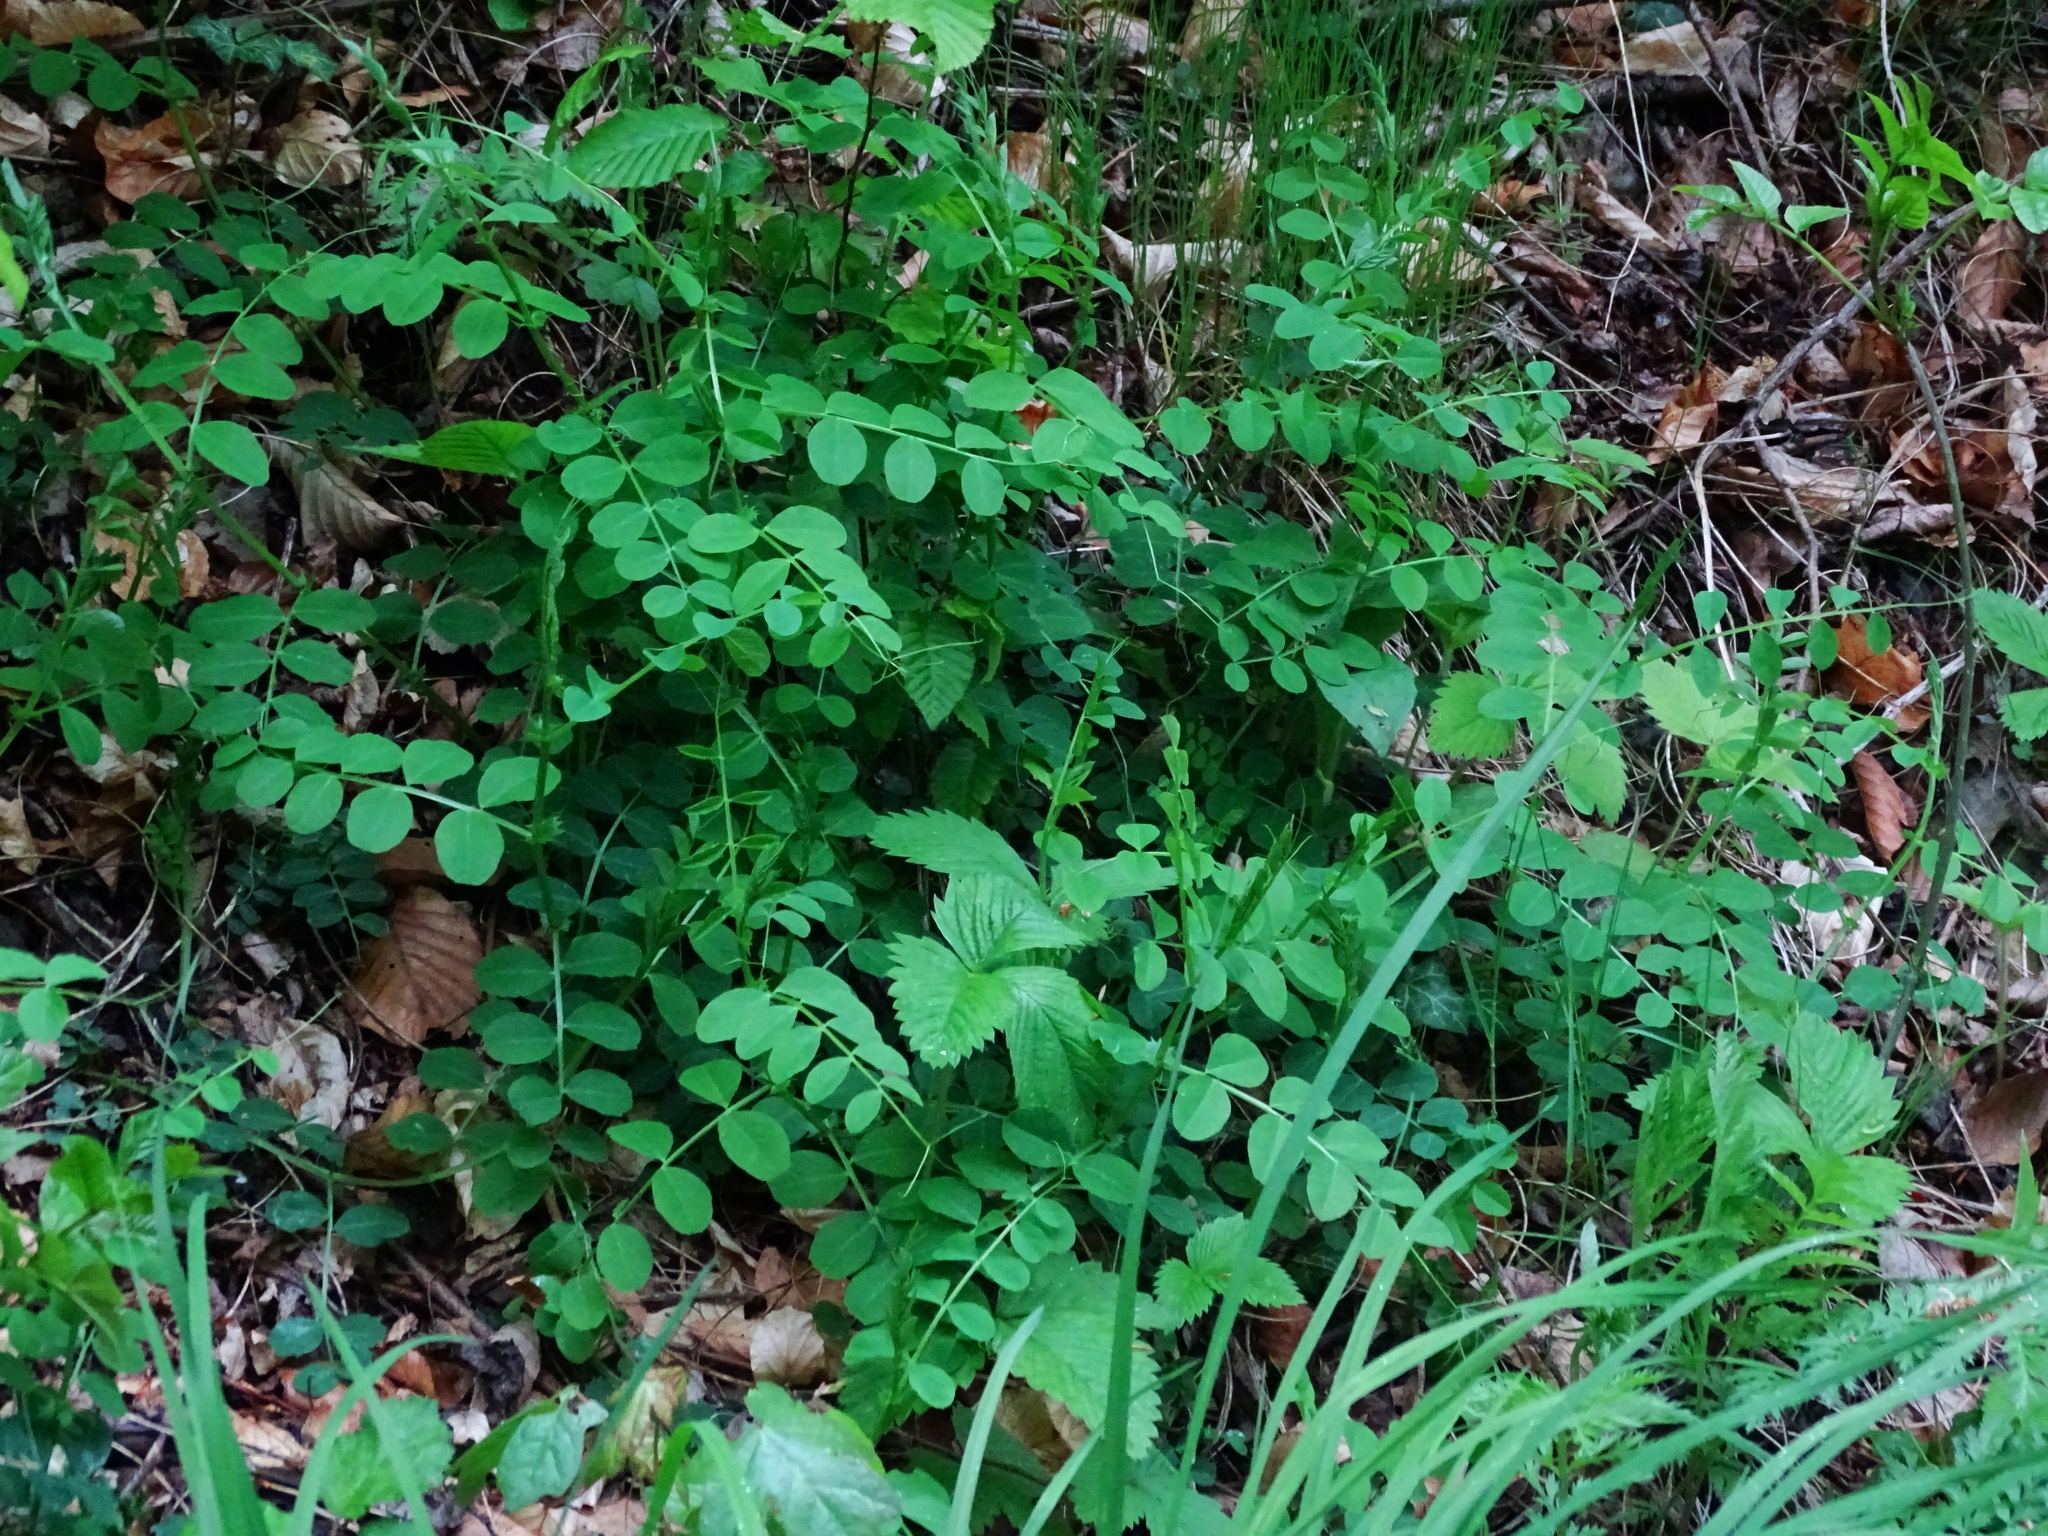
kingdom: Plantae
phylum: Tracheophyta
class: Magnoliopsida
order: Fabales
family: Fabaceae
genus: Vicia
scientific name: Vicia dumetorum
